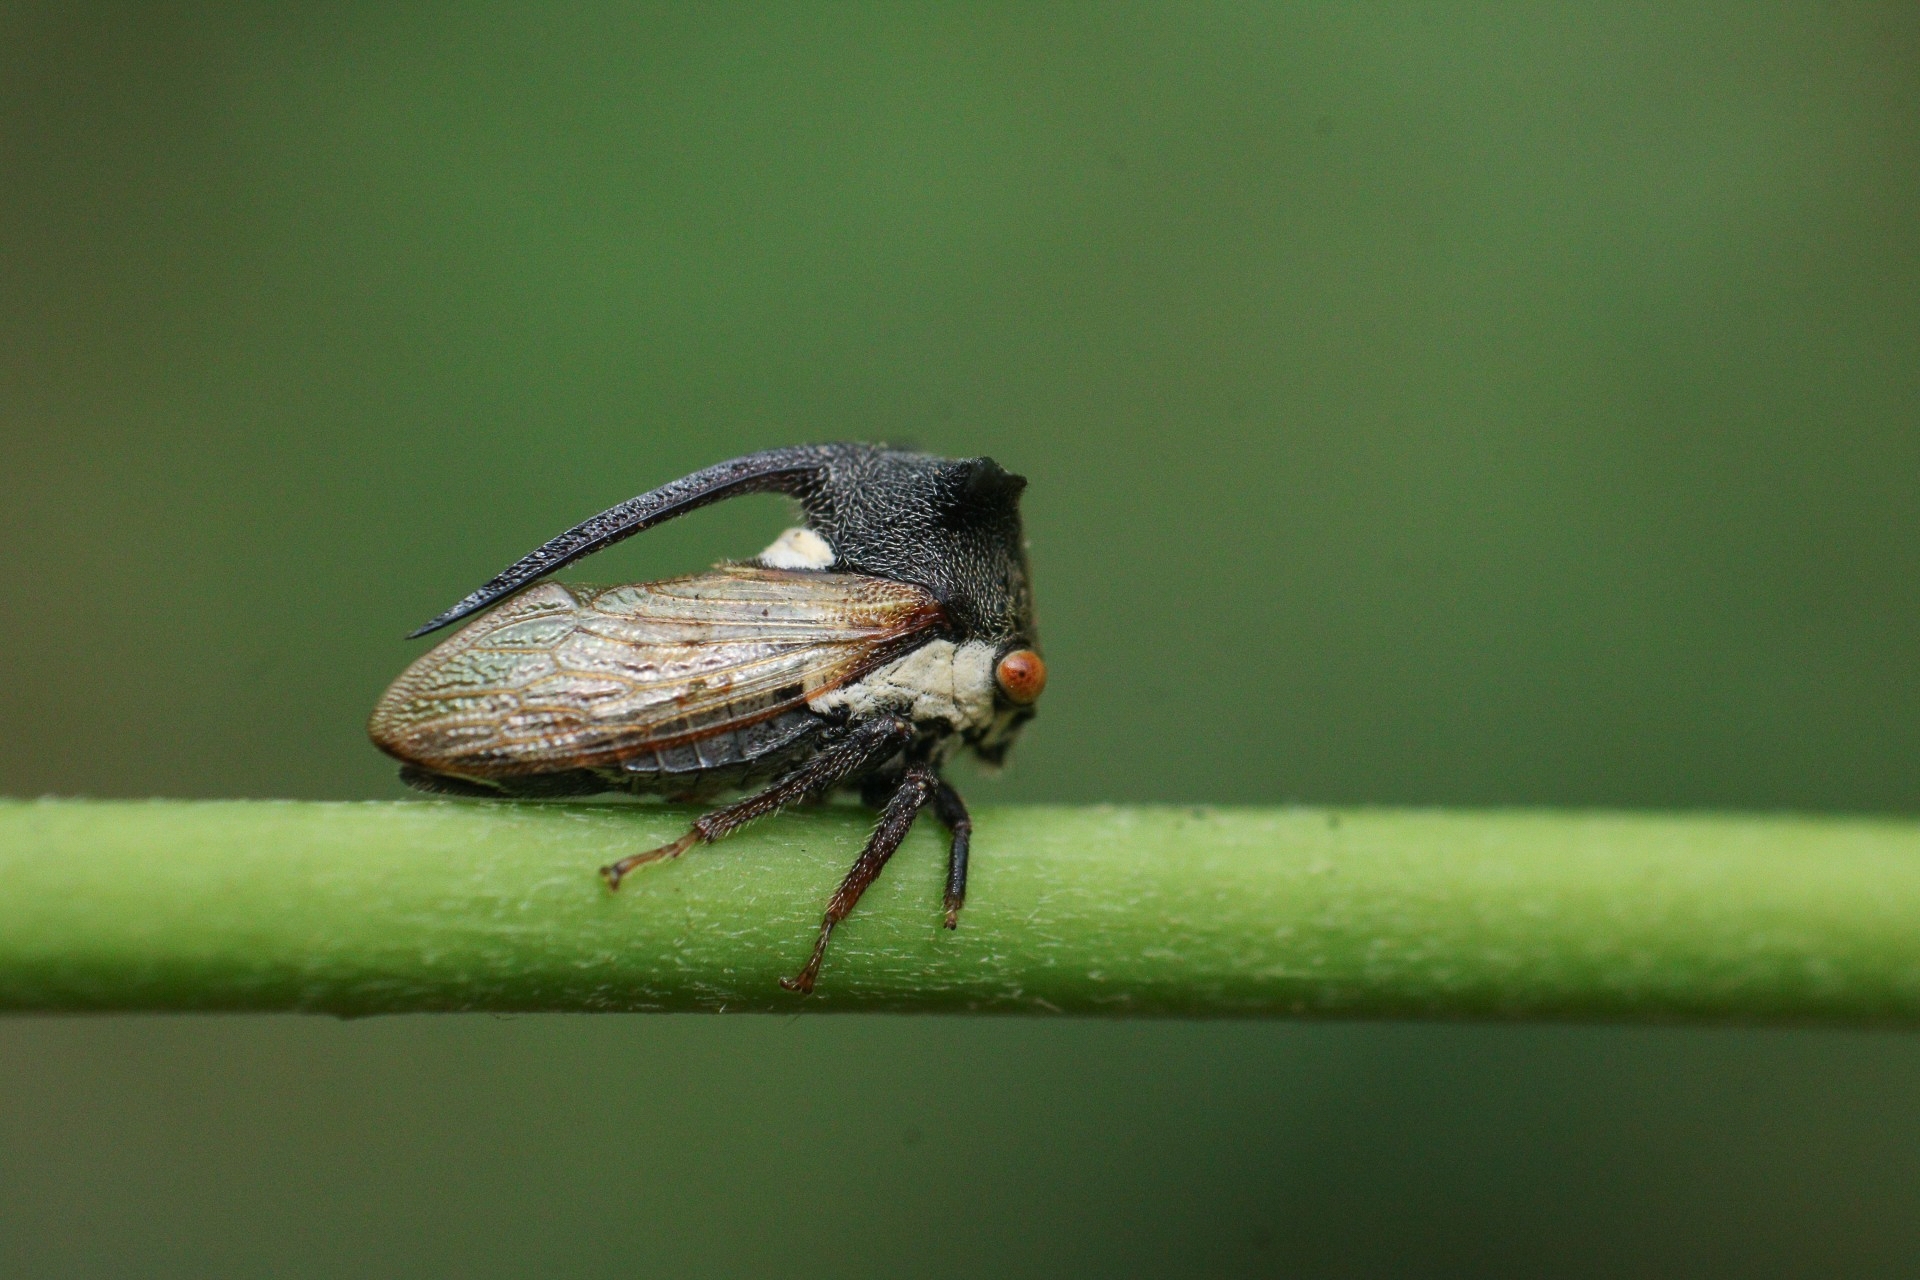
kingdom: Animalia
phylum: Arthropoda
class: Insecta
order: Hemiptera
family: Membracidae
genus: Leptocentrus
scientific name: Leptocentrus taurus
